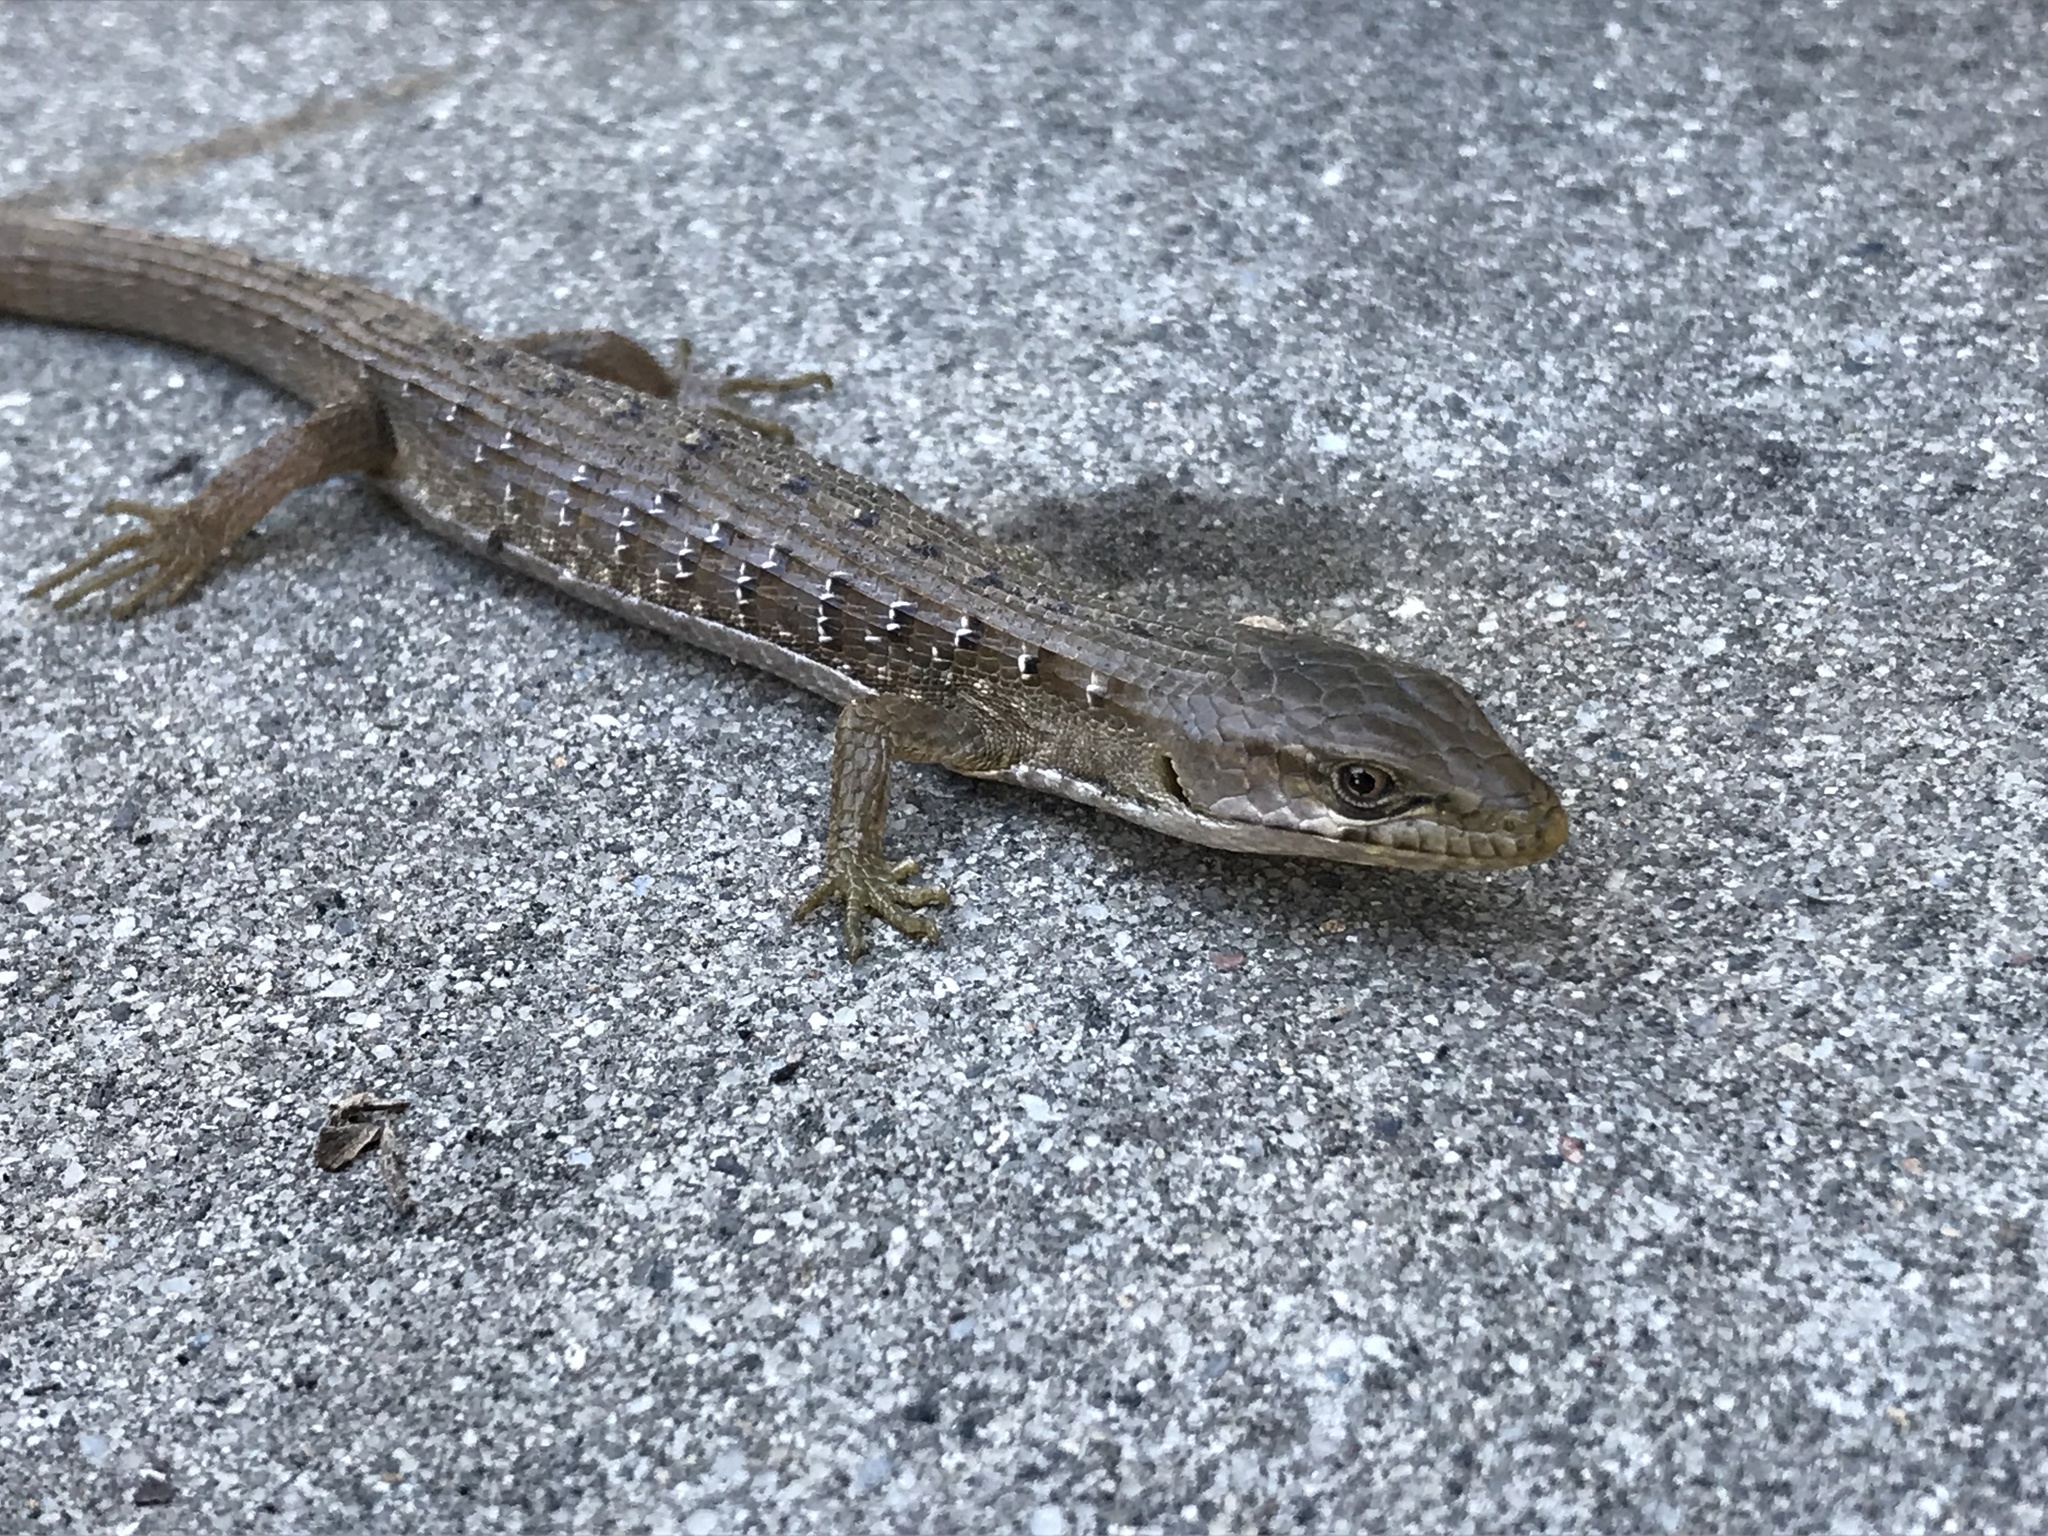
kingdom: Animalia
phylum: Chordata
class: Squamata
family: Anguidae
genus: Elgaria
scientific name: Elgaria multicarinata
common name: Southern alligator lizard
